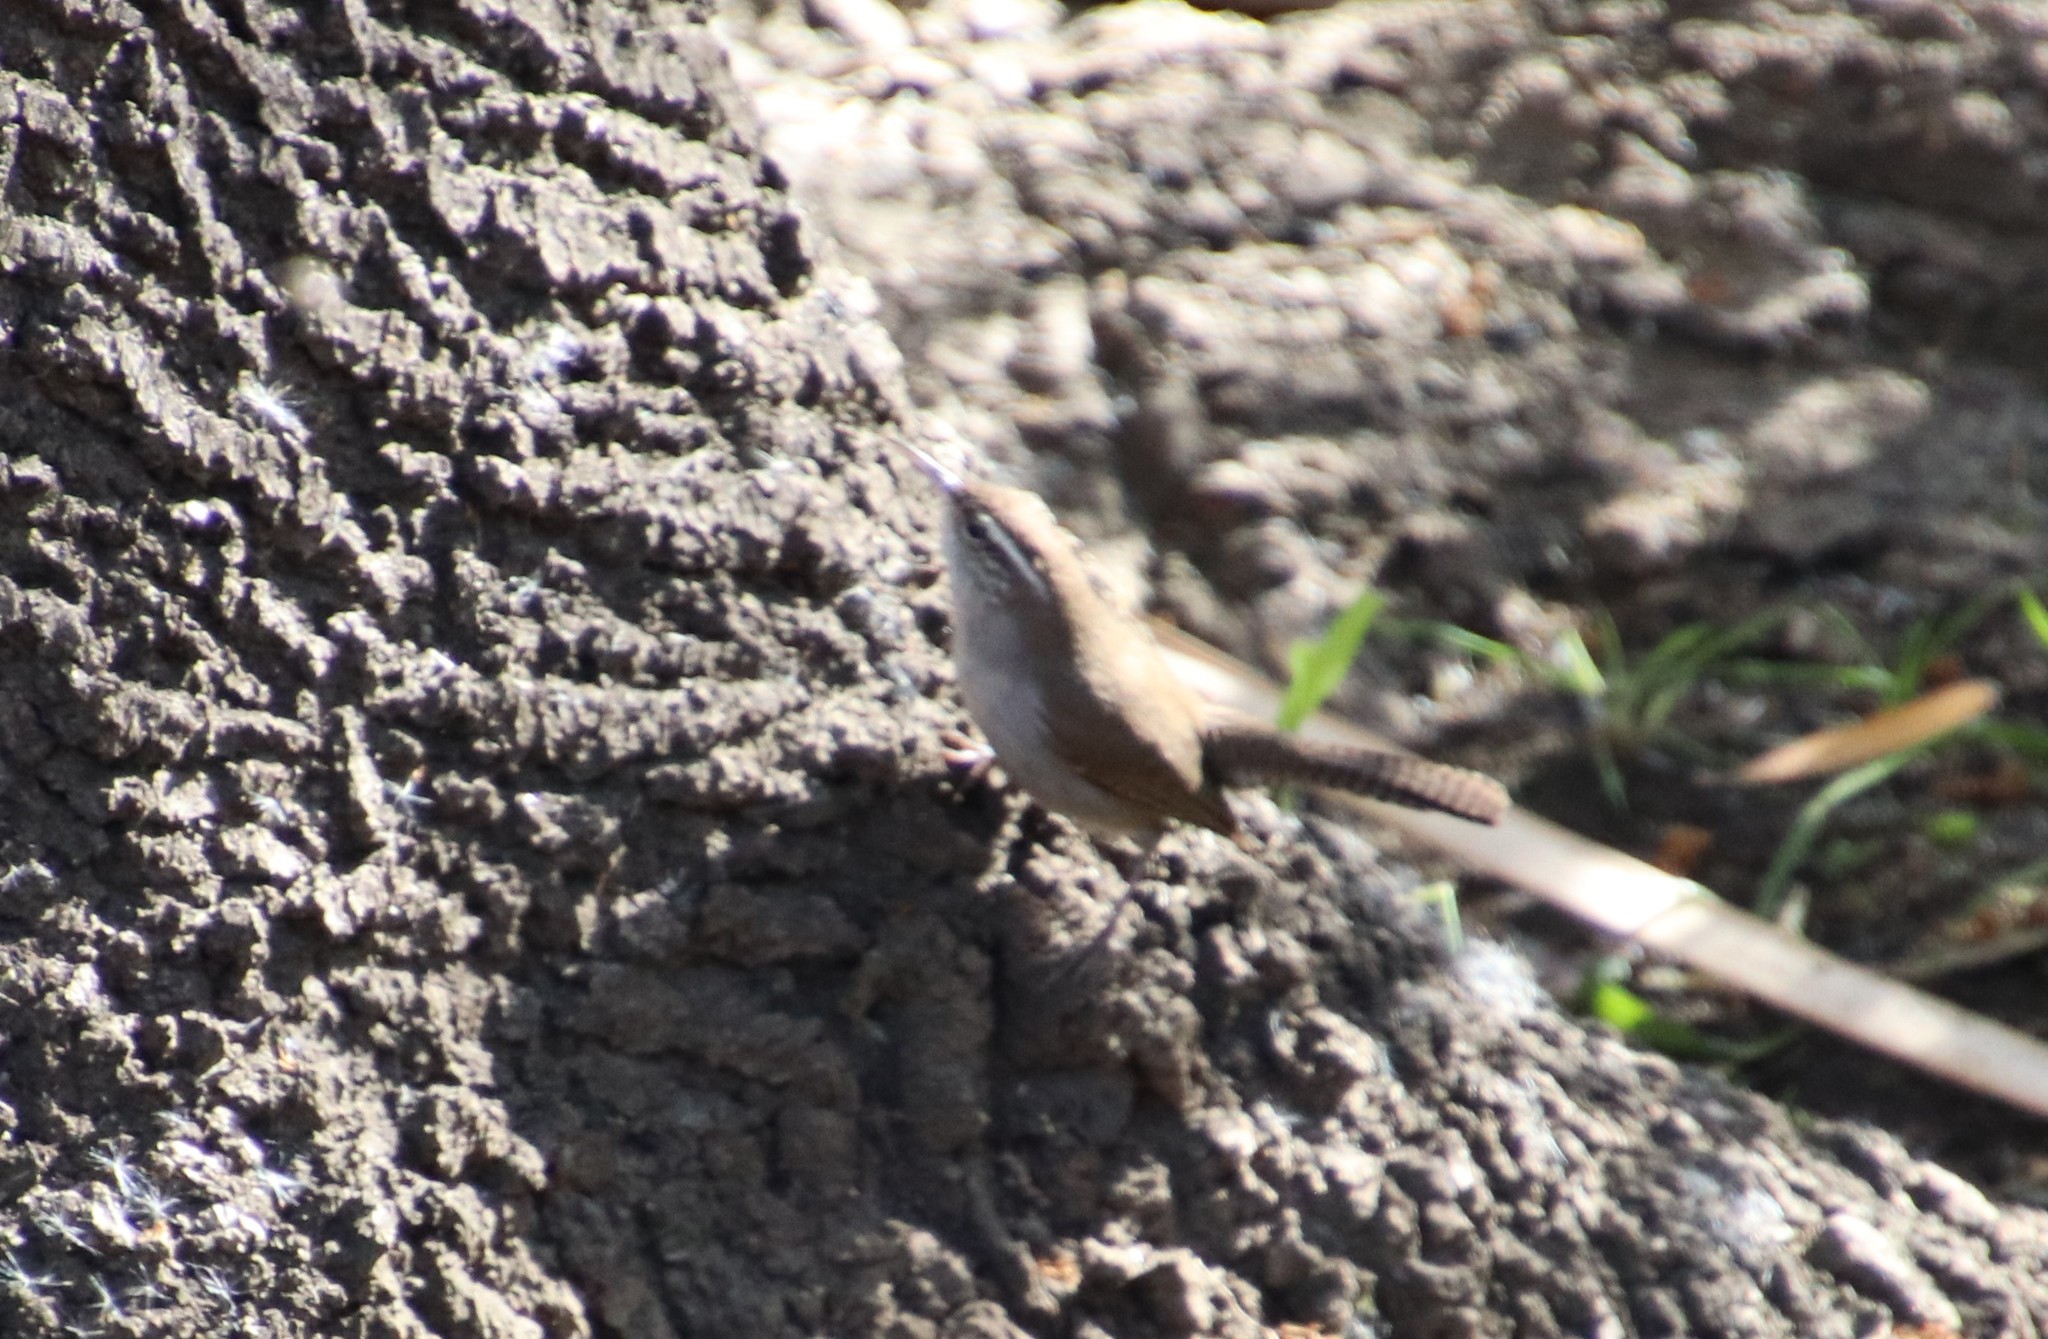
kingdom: Animalia
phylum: Chordata
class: Aves
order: Passeriformes
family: Troglodytidae
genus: Thryomanes
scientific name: Thryomanes bewickii
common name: Bewick's wren
